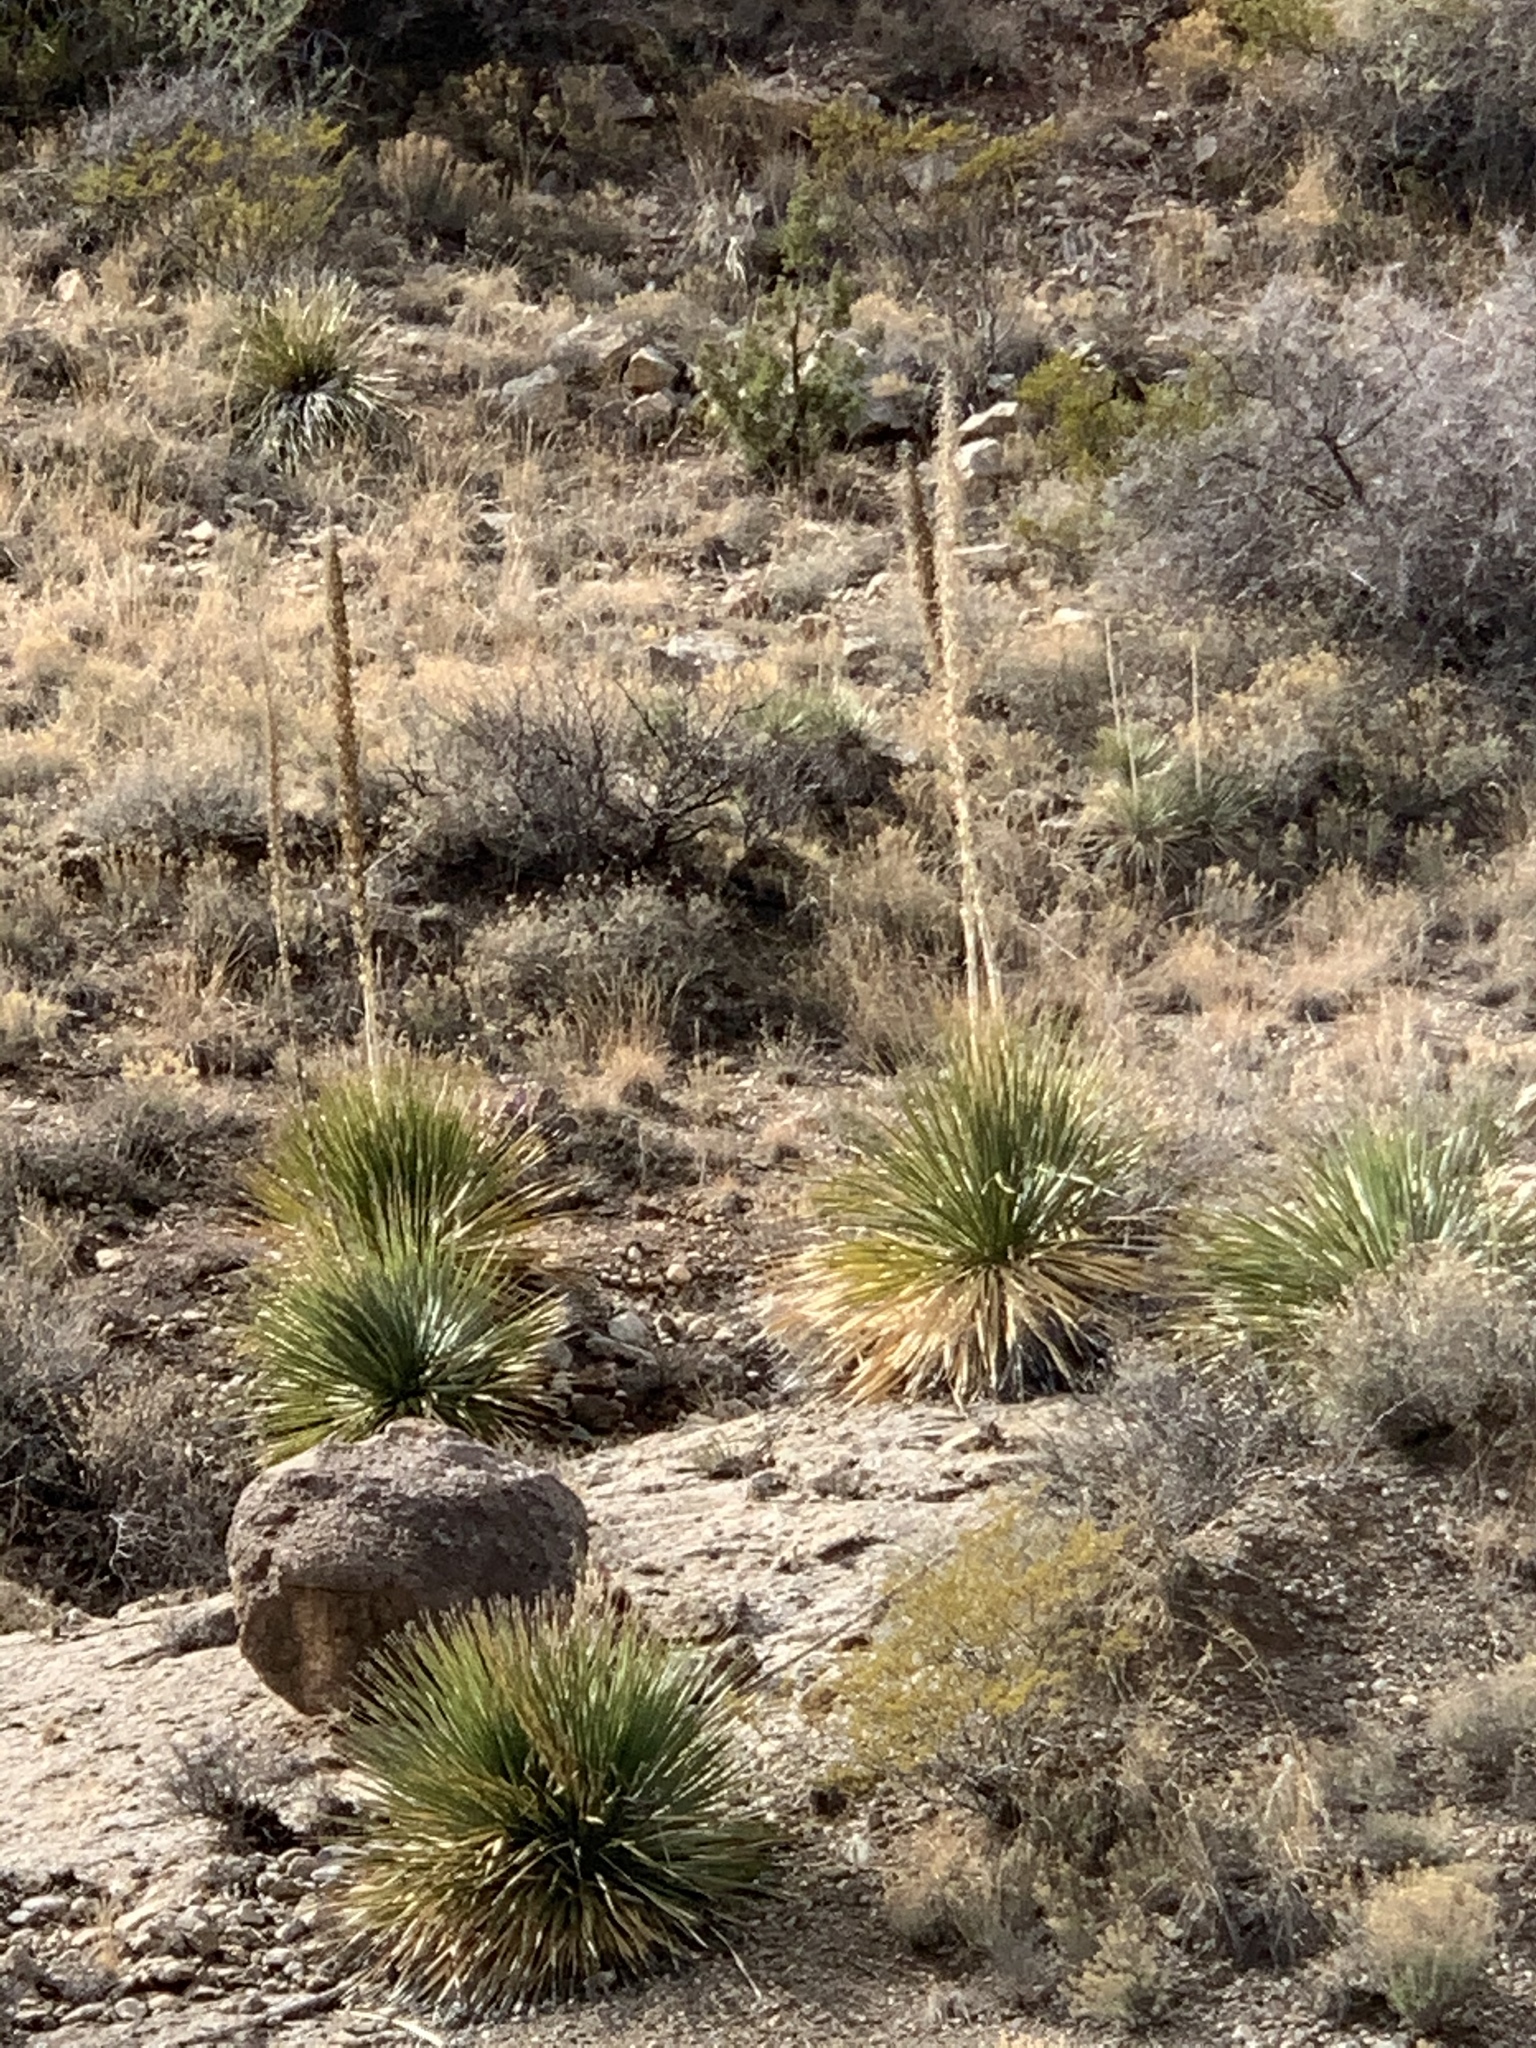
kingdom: Plantae
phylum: Tracheophyta
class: Liliopsida
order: Asparagales
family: Asparagaceae
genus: Dasylirion
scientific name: Dasylirion wheeleri
